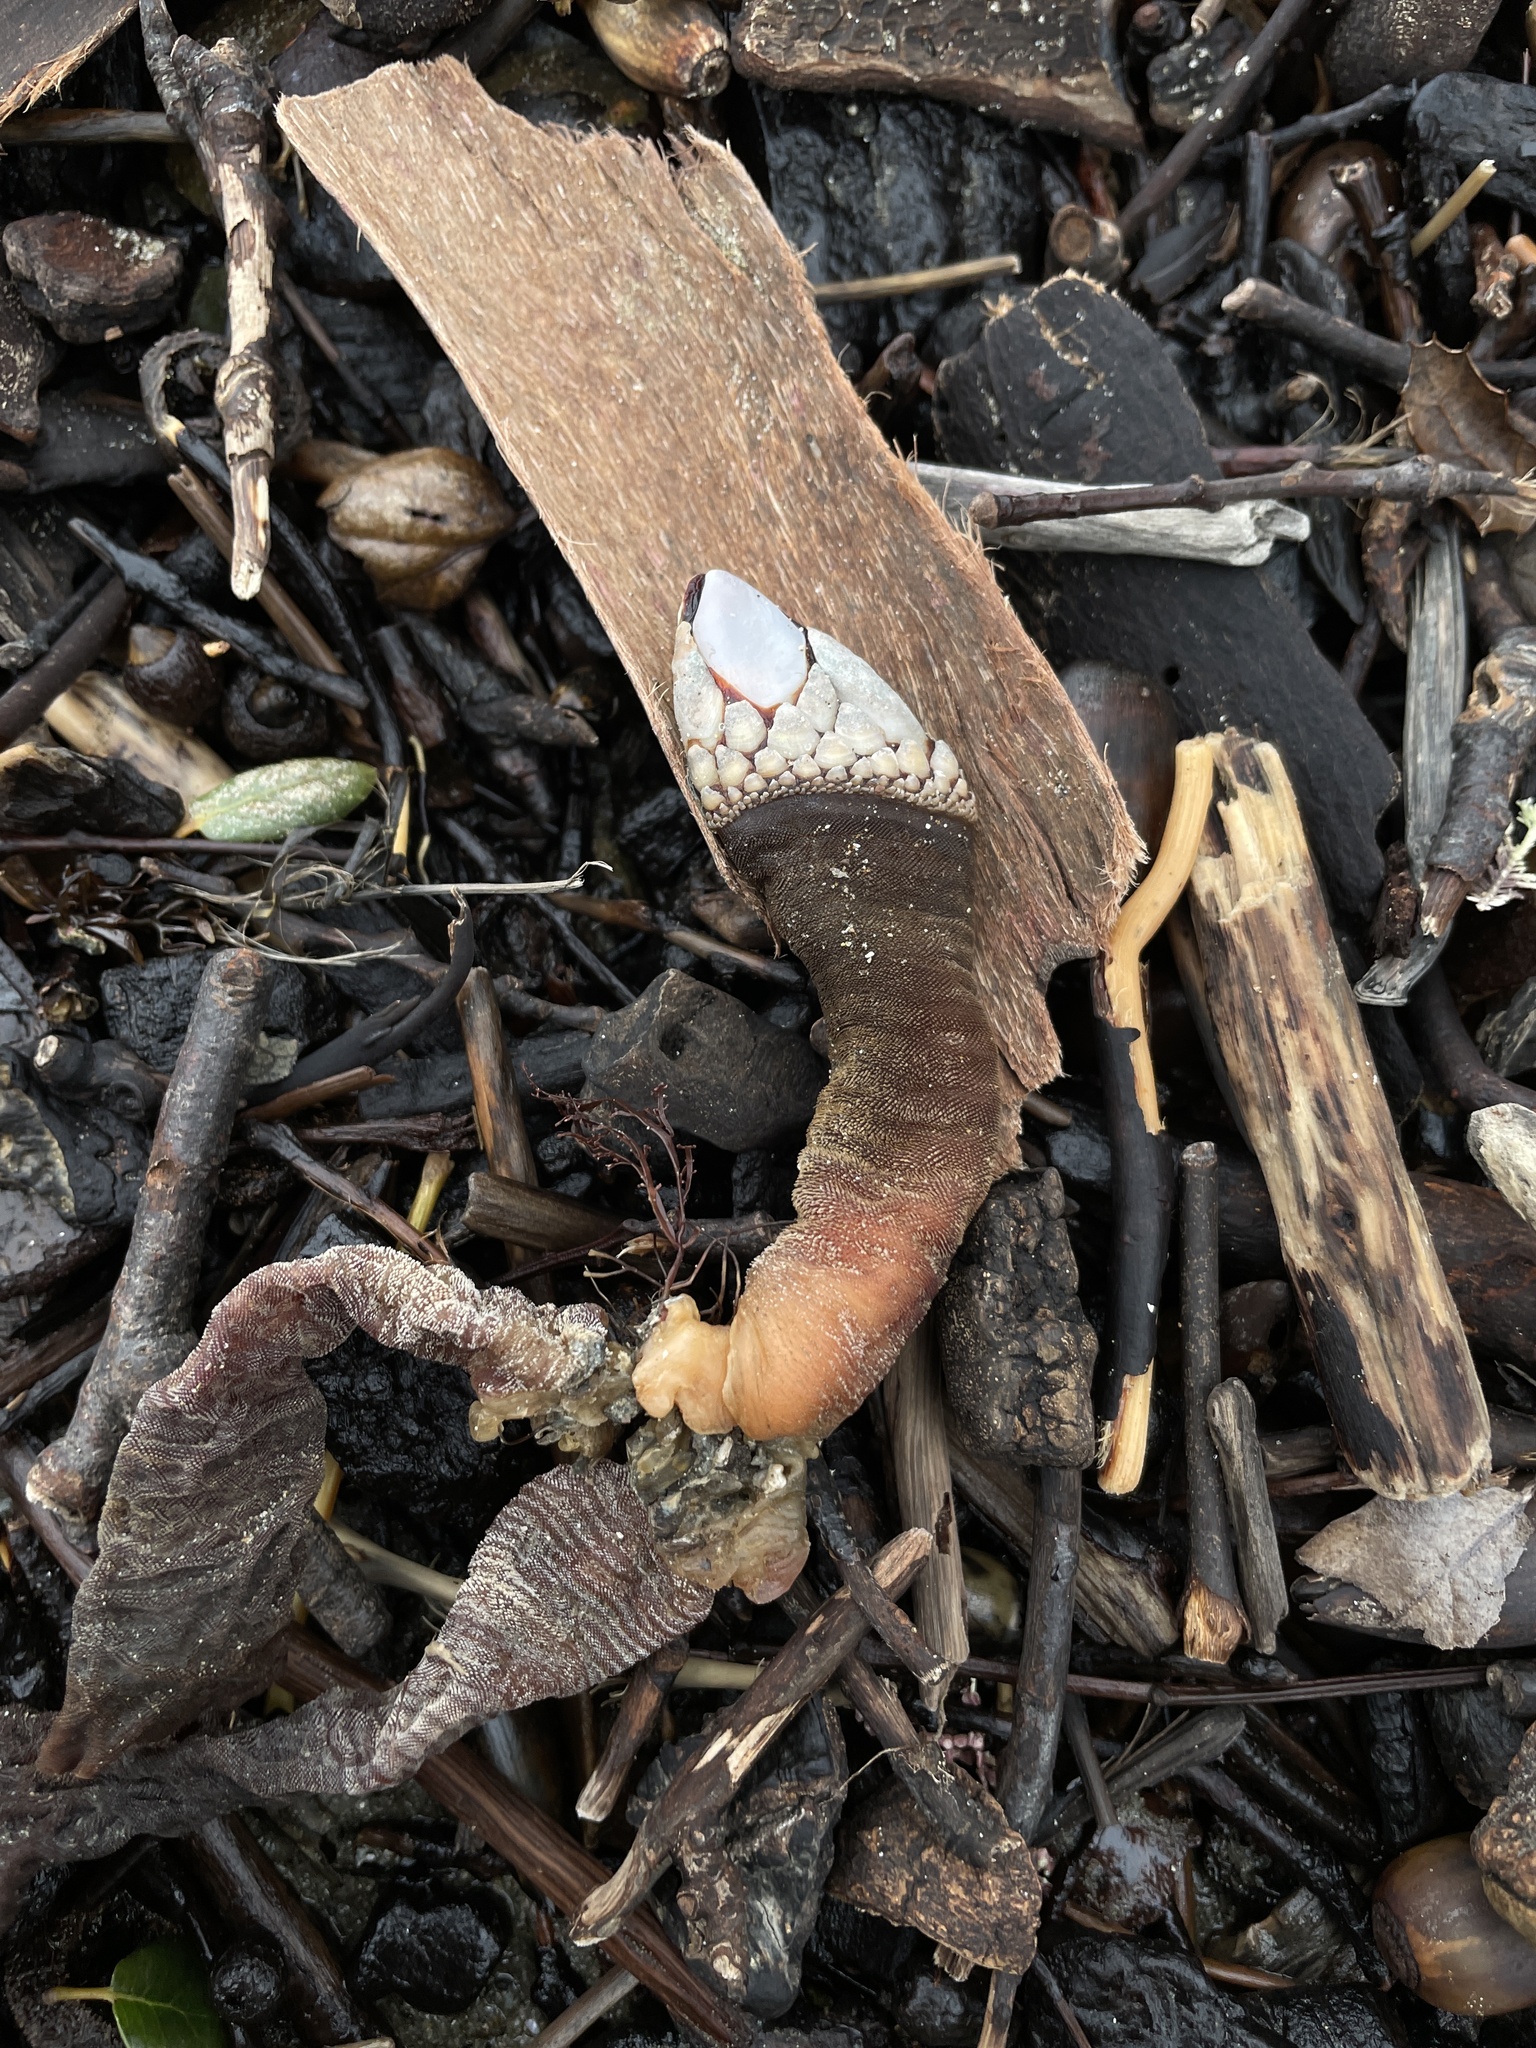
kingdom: Animalia
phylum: Arthropoda
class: Maxillopoda
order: Pedunculata
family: Pollicipedidae
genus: Pollicipes
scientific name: Pollicipes polymerus
